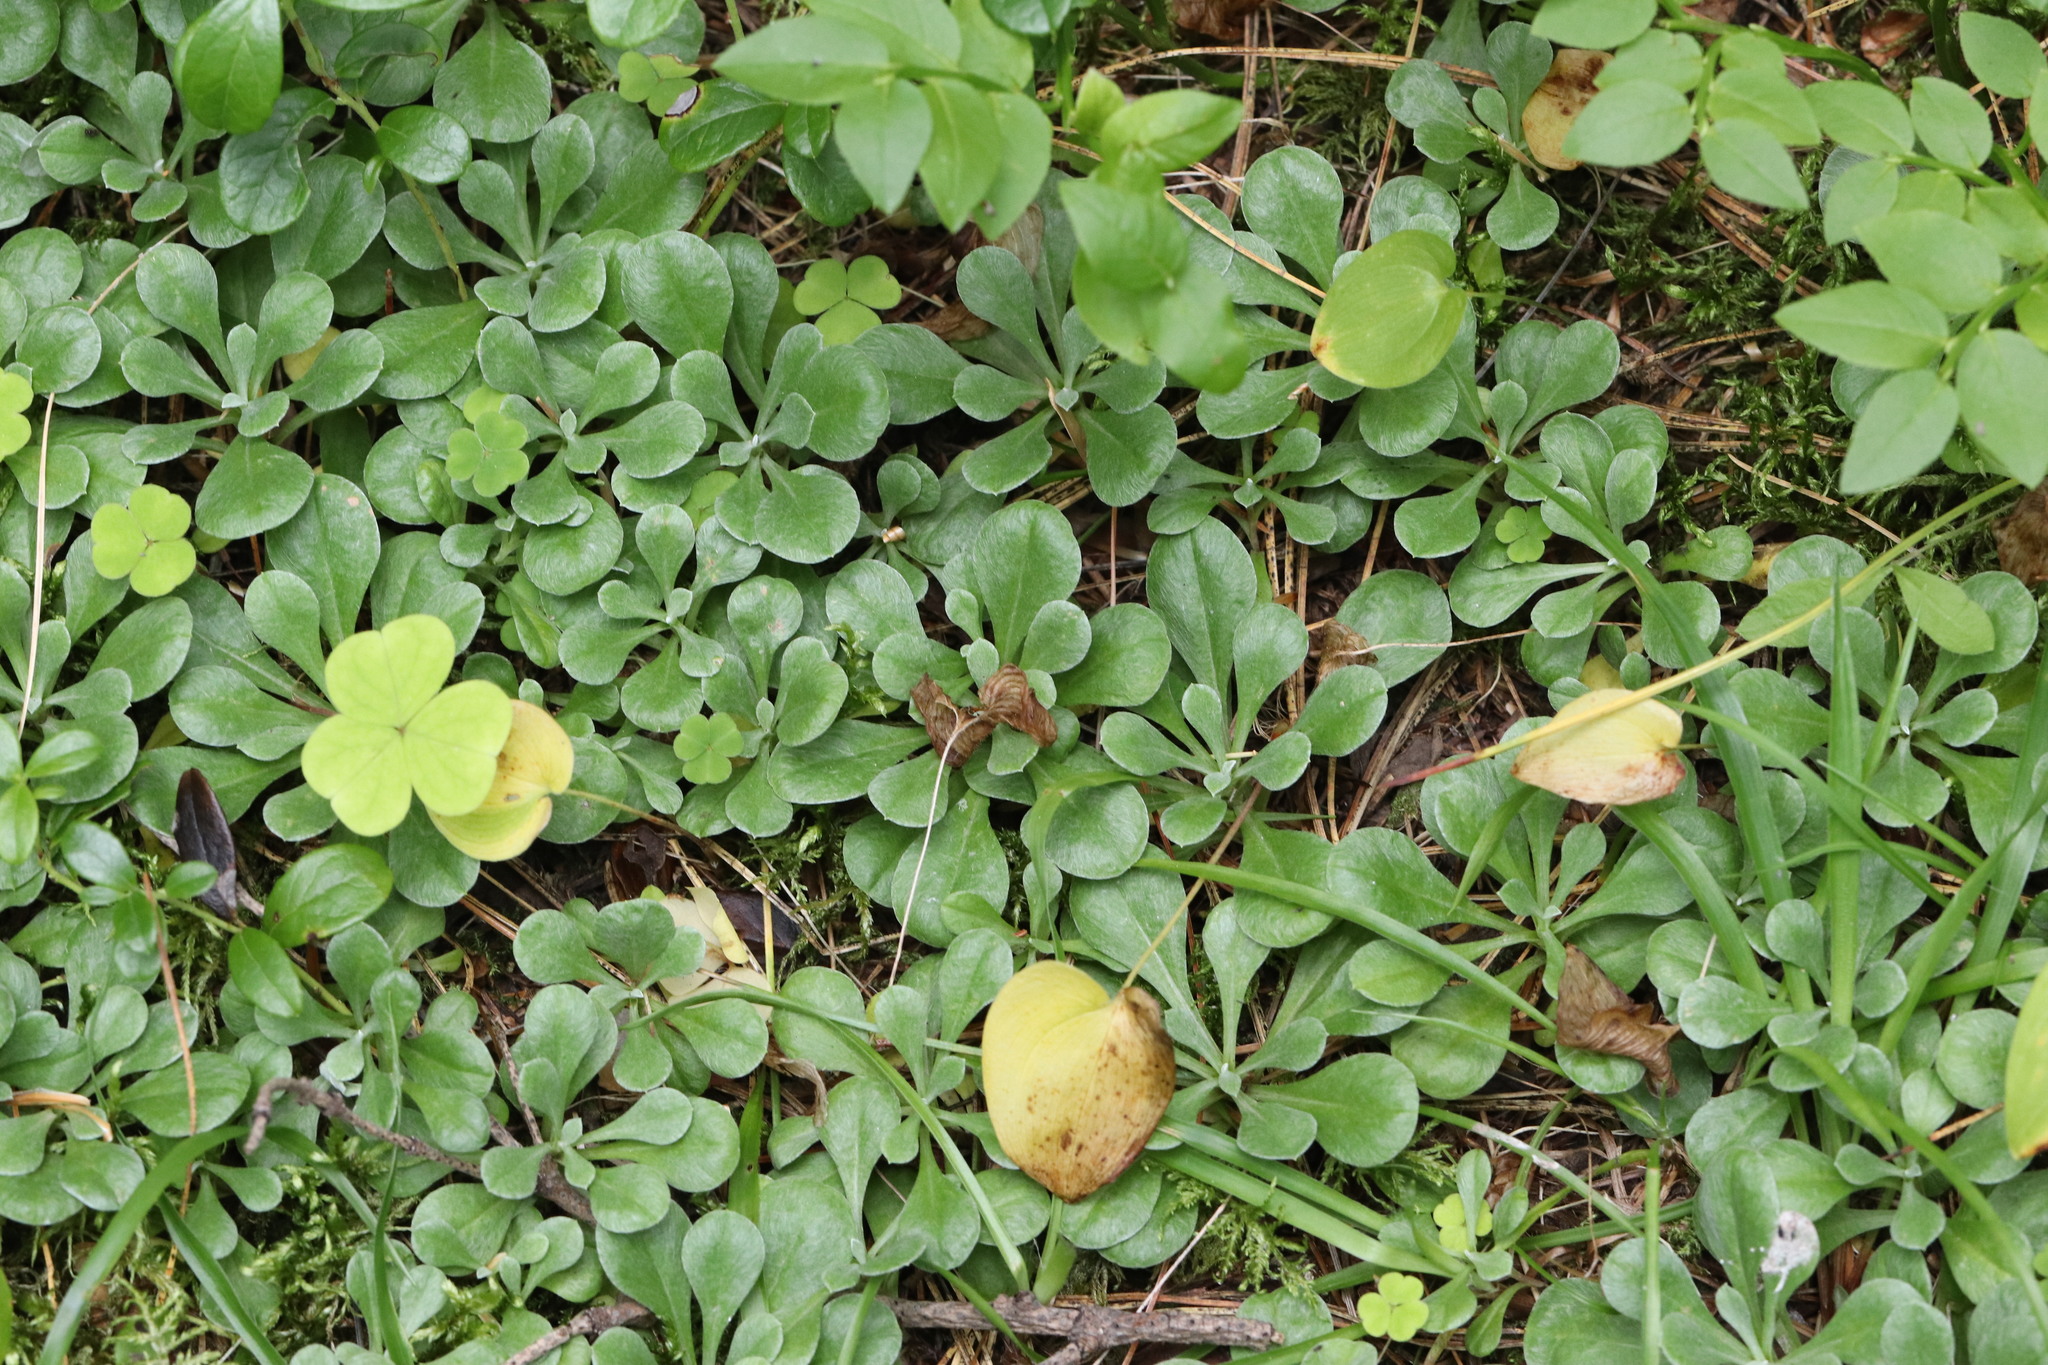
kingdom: Plantae
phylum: Tracheophyta
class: Magnoliopsida
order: Asterales
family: Asteraceae
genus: Antennaria
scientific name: Antennaria dioica
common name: Mountain everlasting
